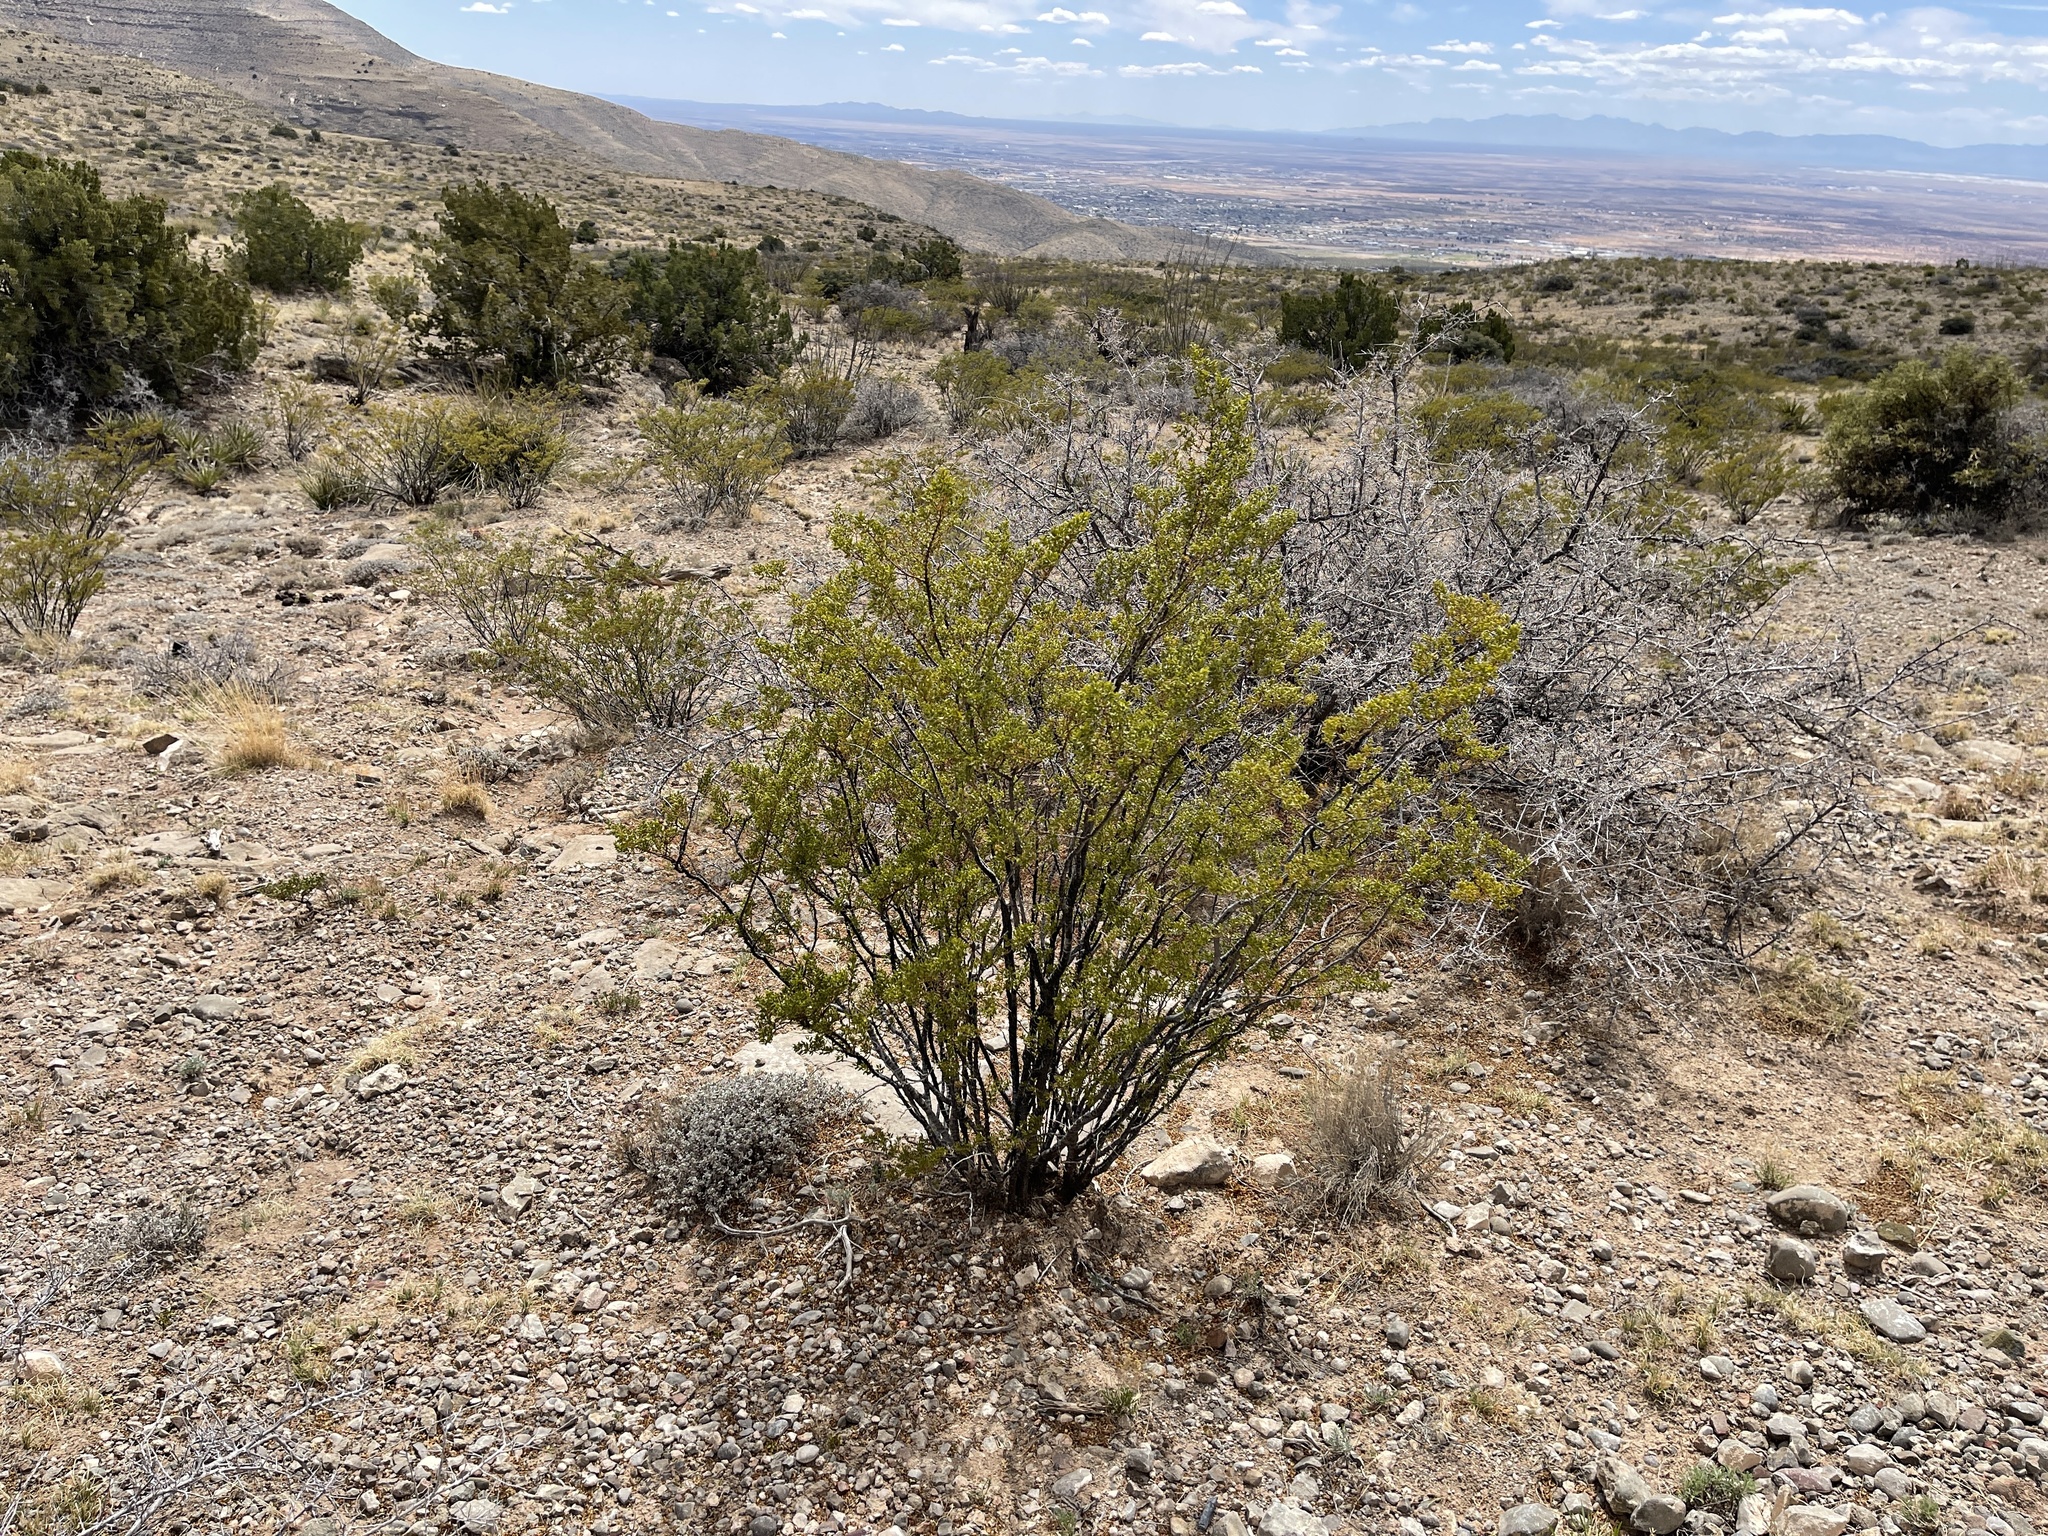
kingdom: Plantae
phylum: Tracheophyta
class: Magnoliopsida
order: Zygophyllales
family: Zygophyllaceae
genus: Larrea
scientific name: Larrea tridentata
